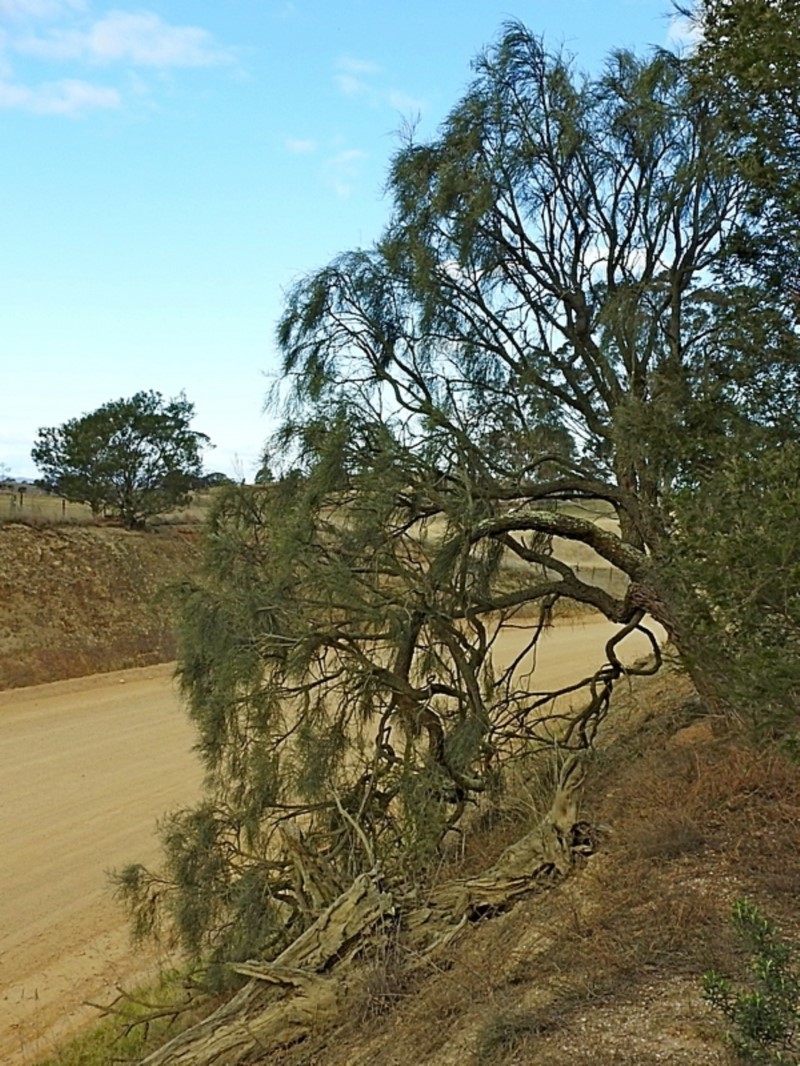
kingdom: Plantae
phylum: Tracheophyta
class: Magnoliopsida
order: Fabales
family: Fabaceae
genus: Jacksonia
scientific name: Jacksonia scoparia
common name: Dogwood
